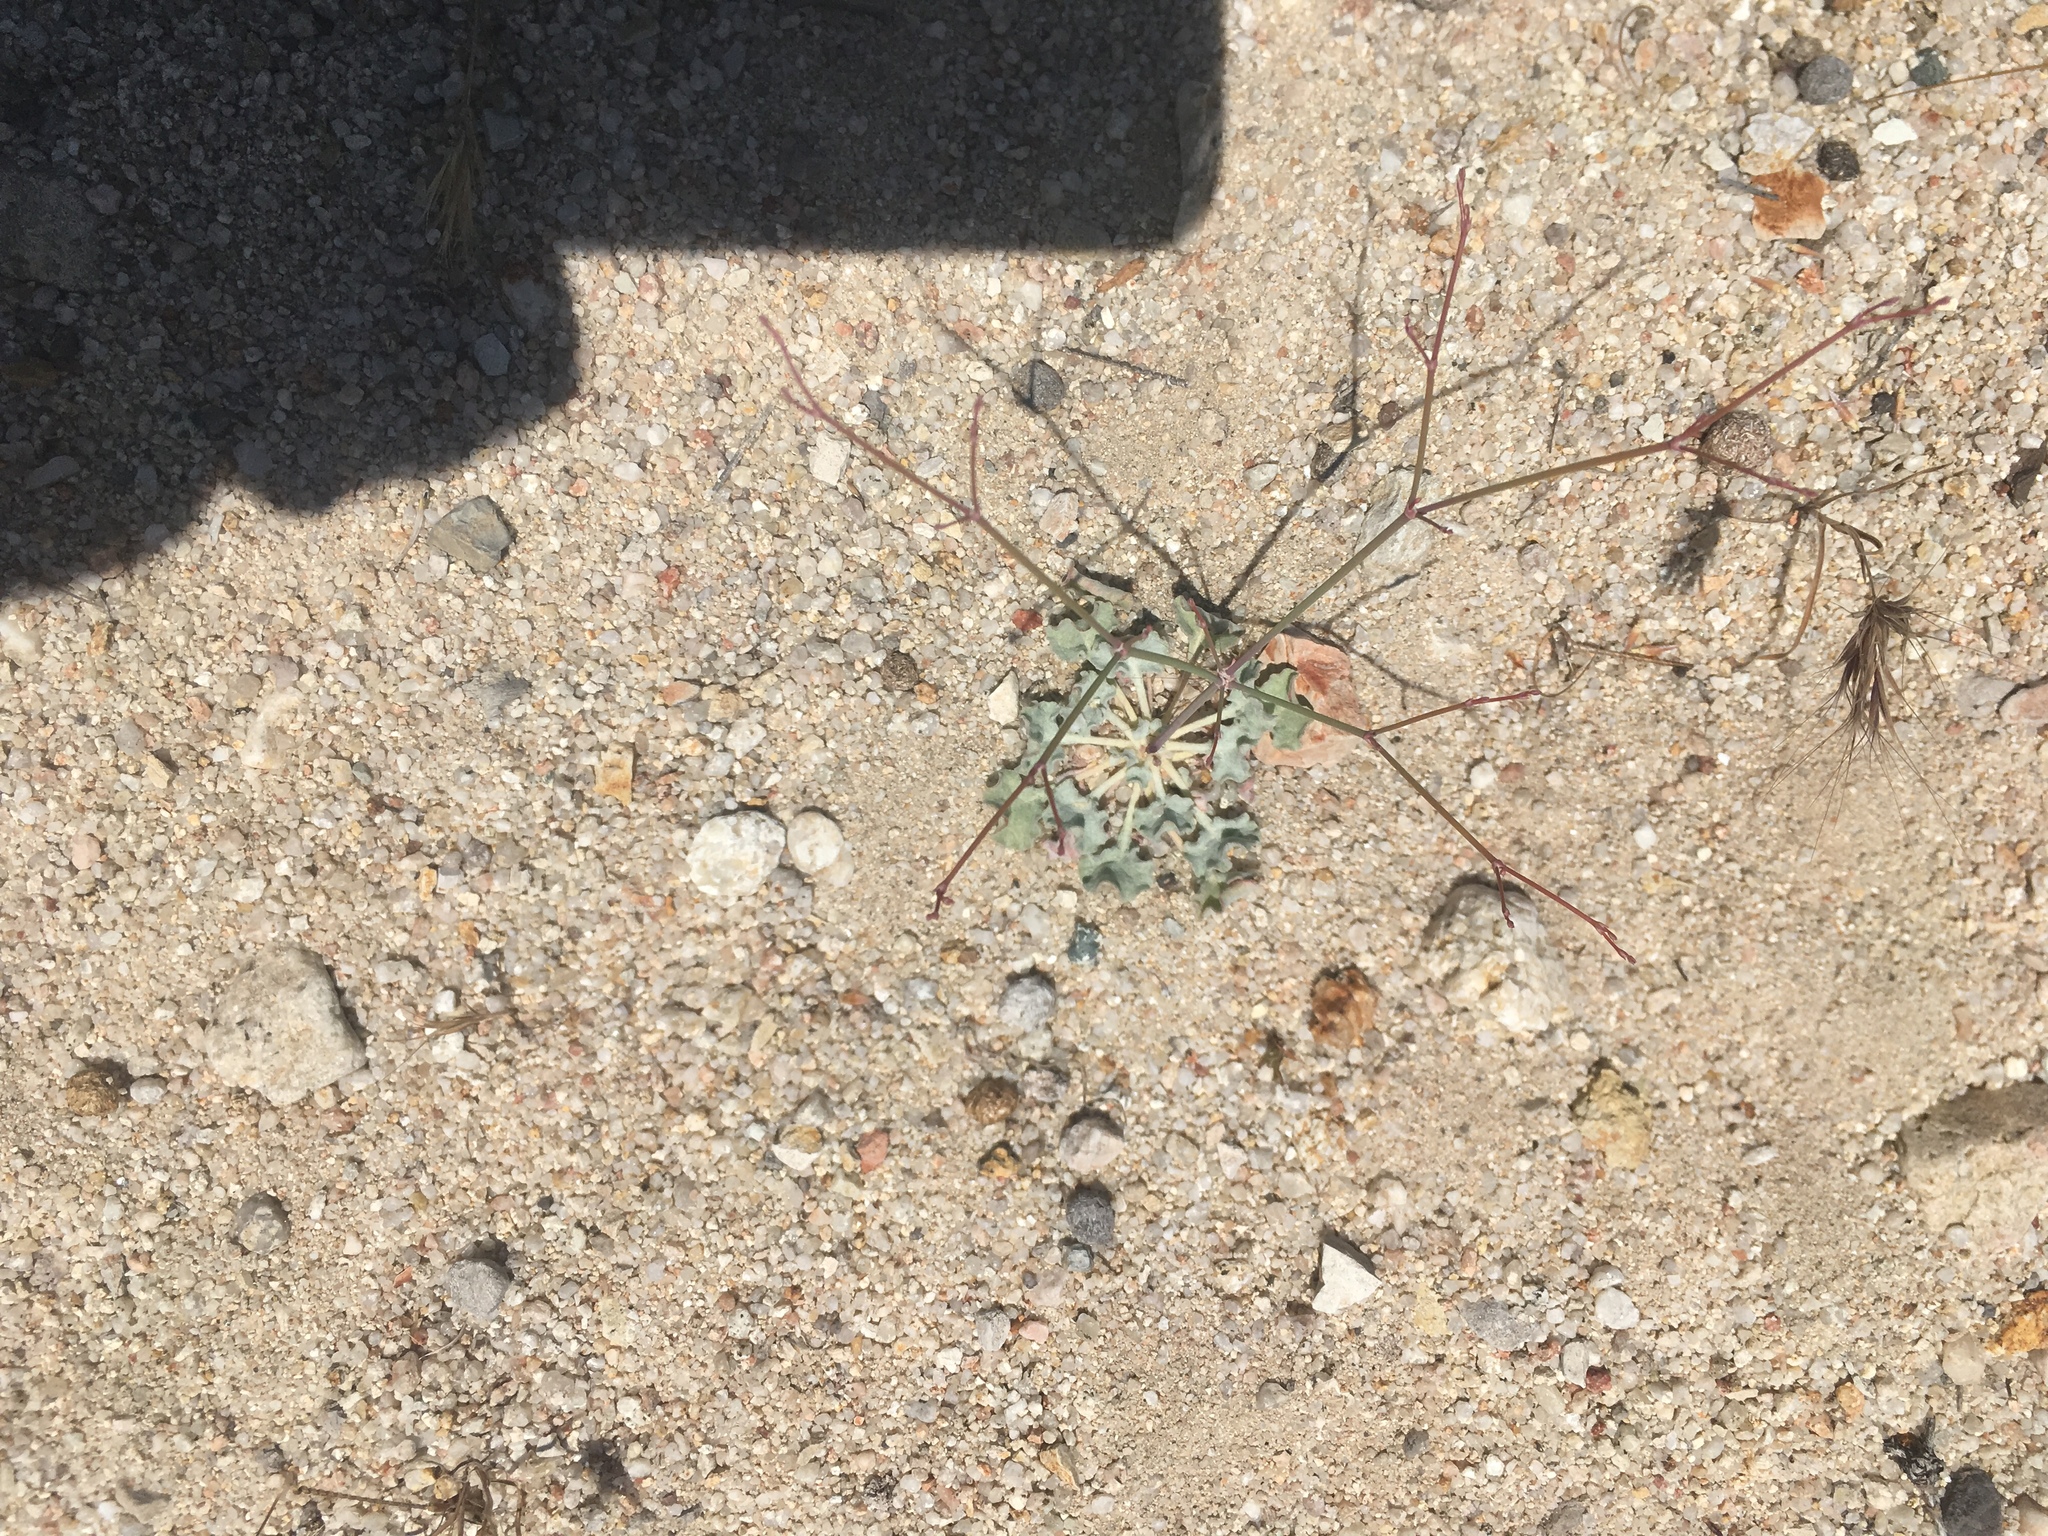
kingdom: Plantae
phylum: Tracheophyta
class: Magnoliopsida
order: Caryophyllales
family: Polygonaceae
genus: Eriogonum
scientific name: Eriogonum elegans
